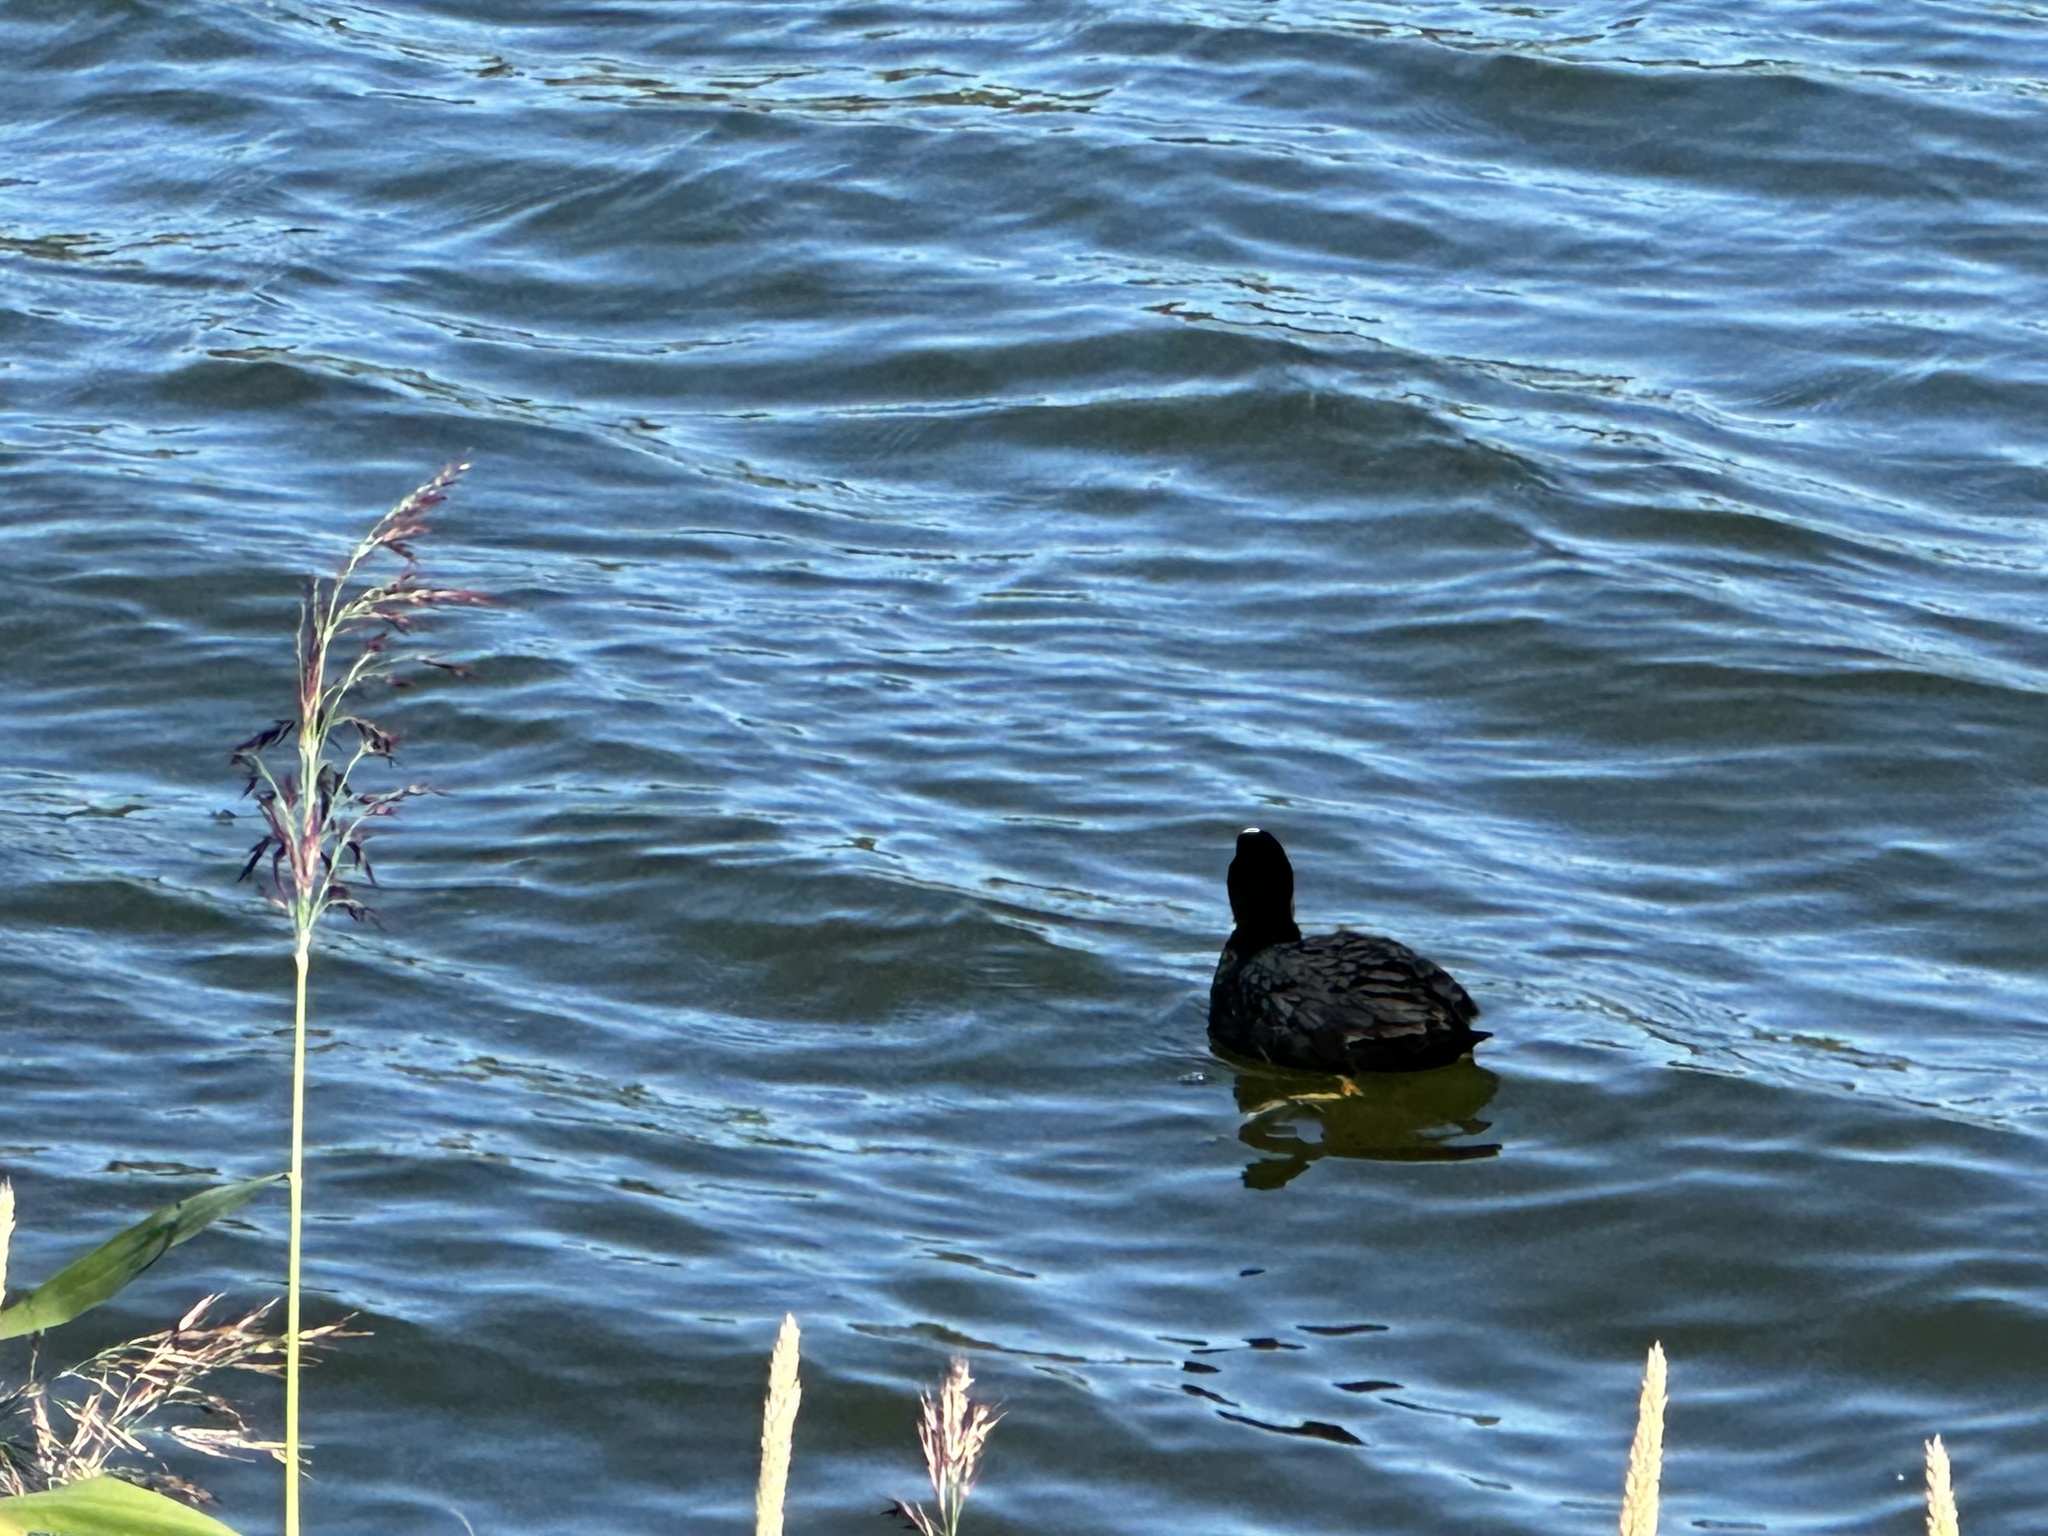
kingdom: Animalia
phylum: Chordata
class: Aves
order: Gruiformes
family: Rallidae
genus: Fulica
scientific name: Fulica atra
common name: Eurasian coot
